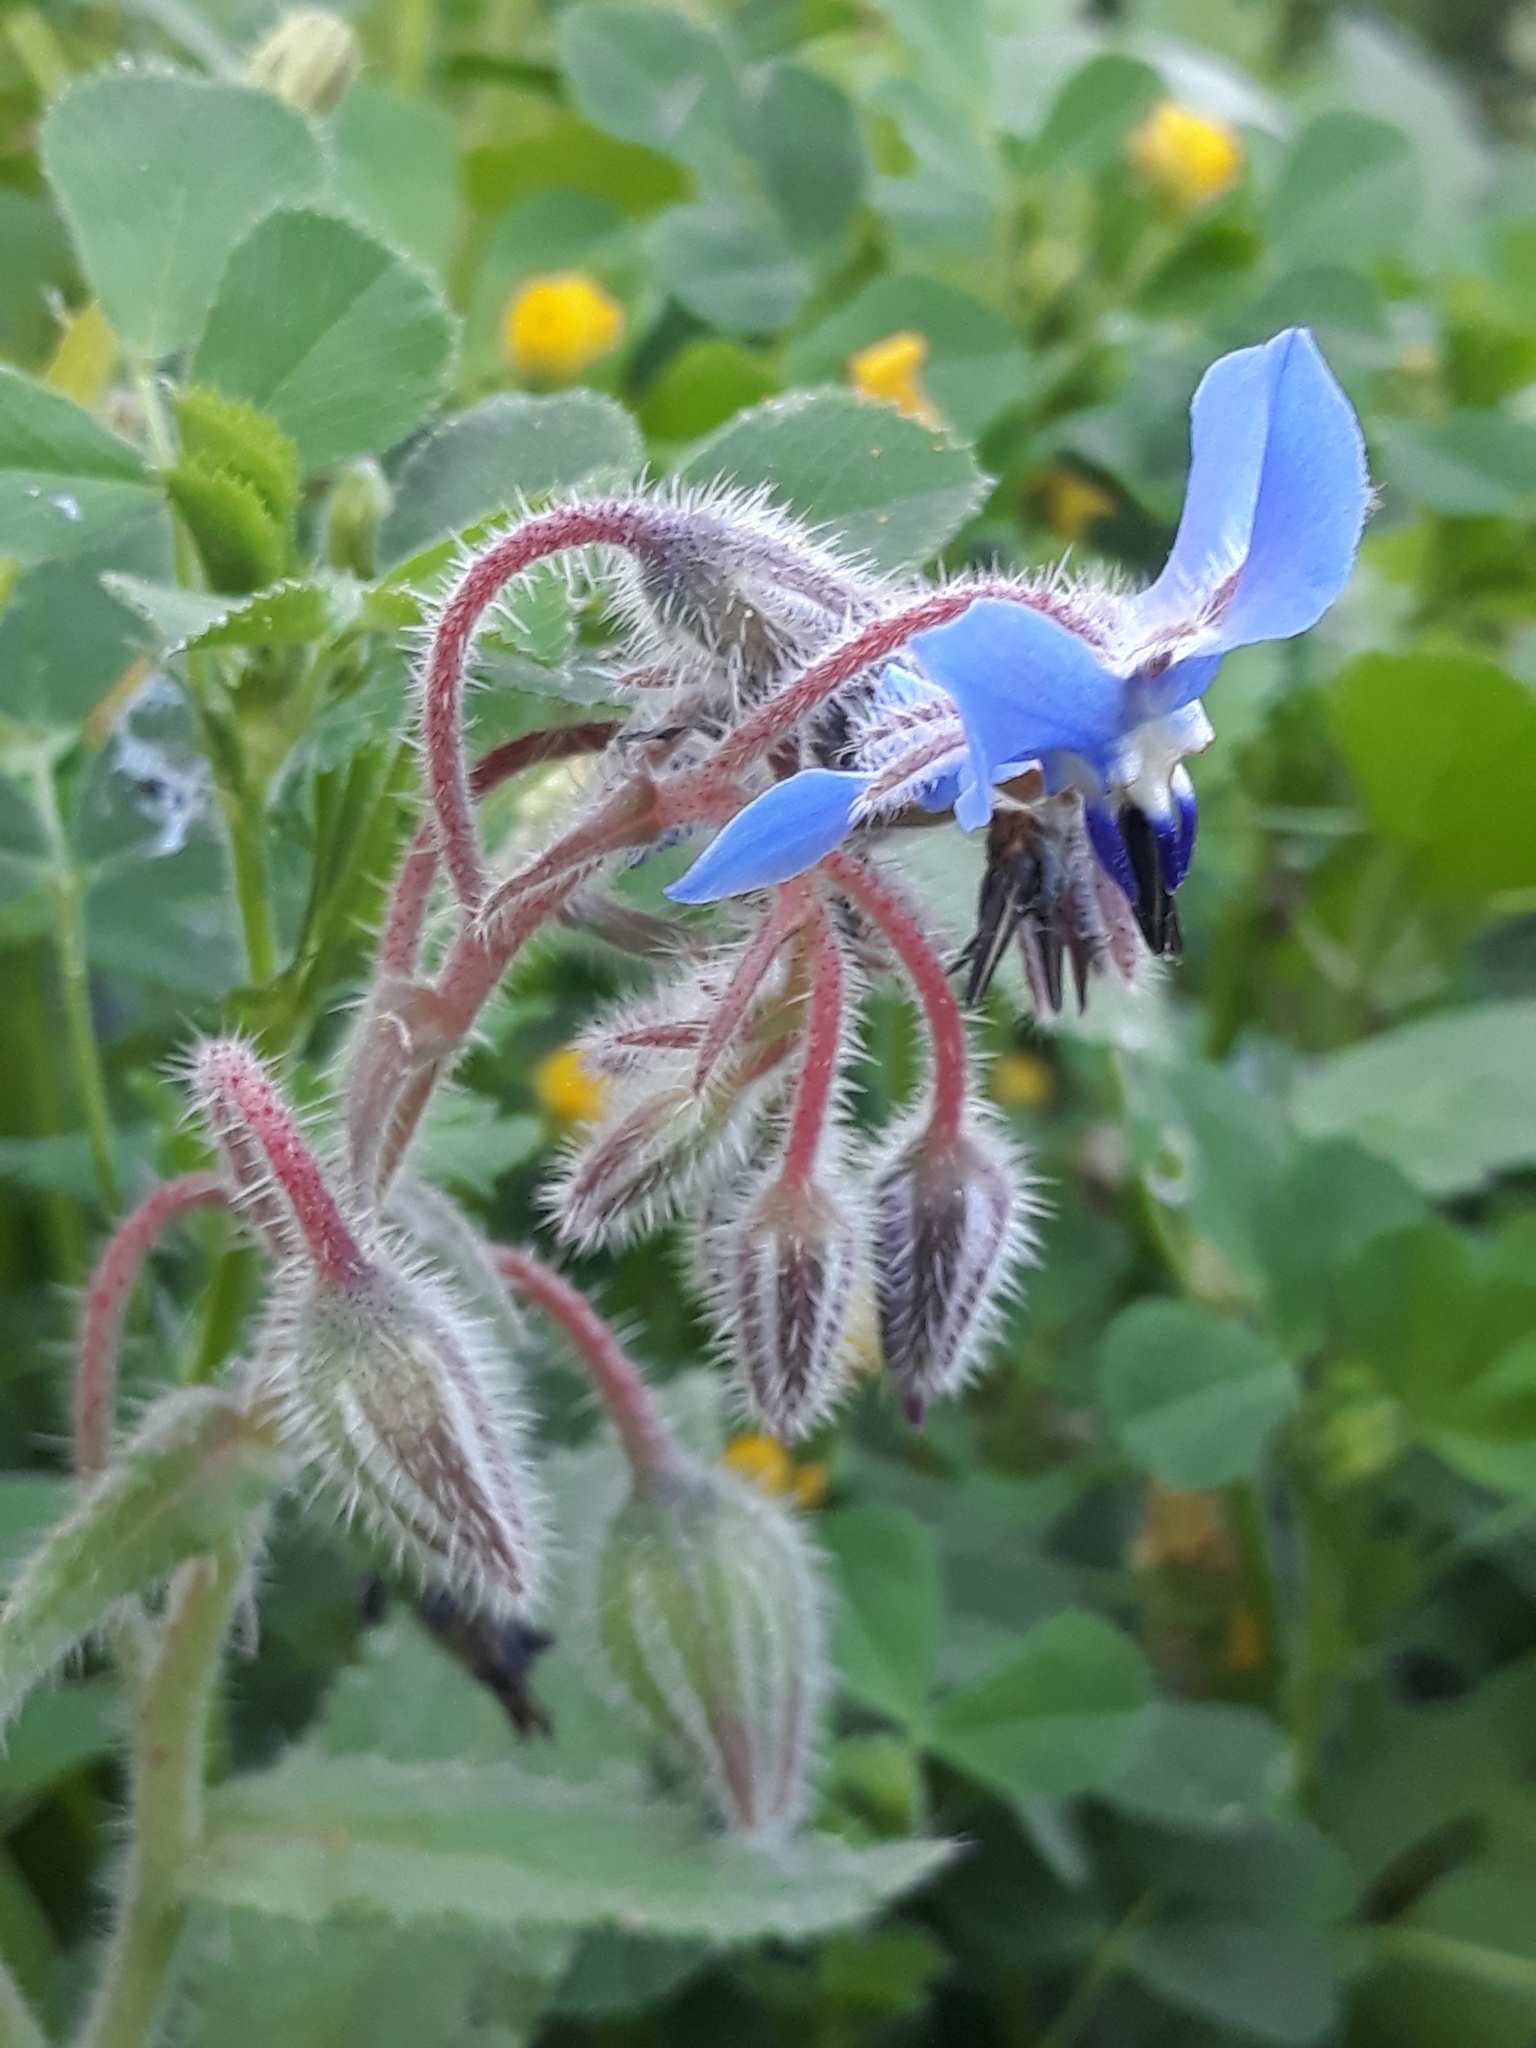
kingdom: Plantae
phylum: Tracheophyta
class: Magnoliopsida
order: Boraginales
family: Boraginaceae
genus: Borago
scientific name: Borago officinalis
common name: Borage
